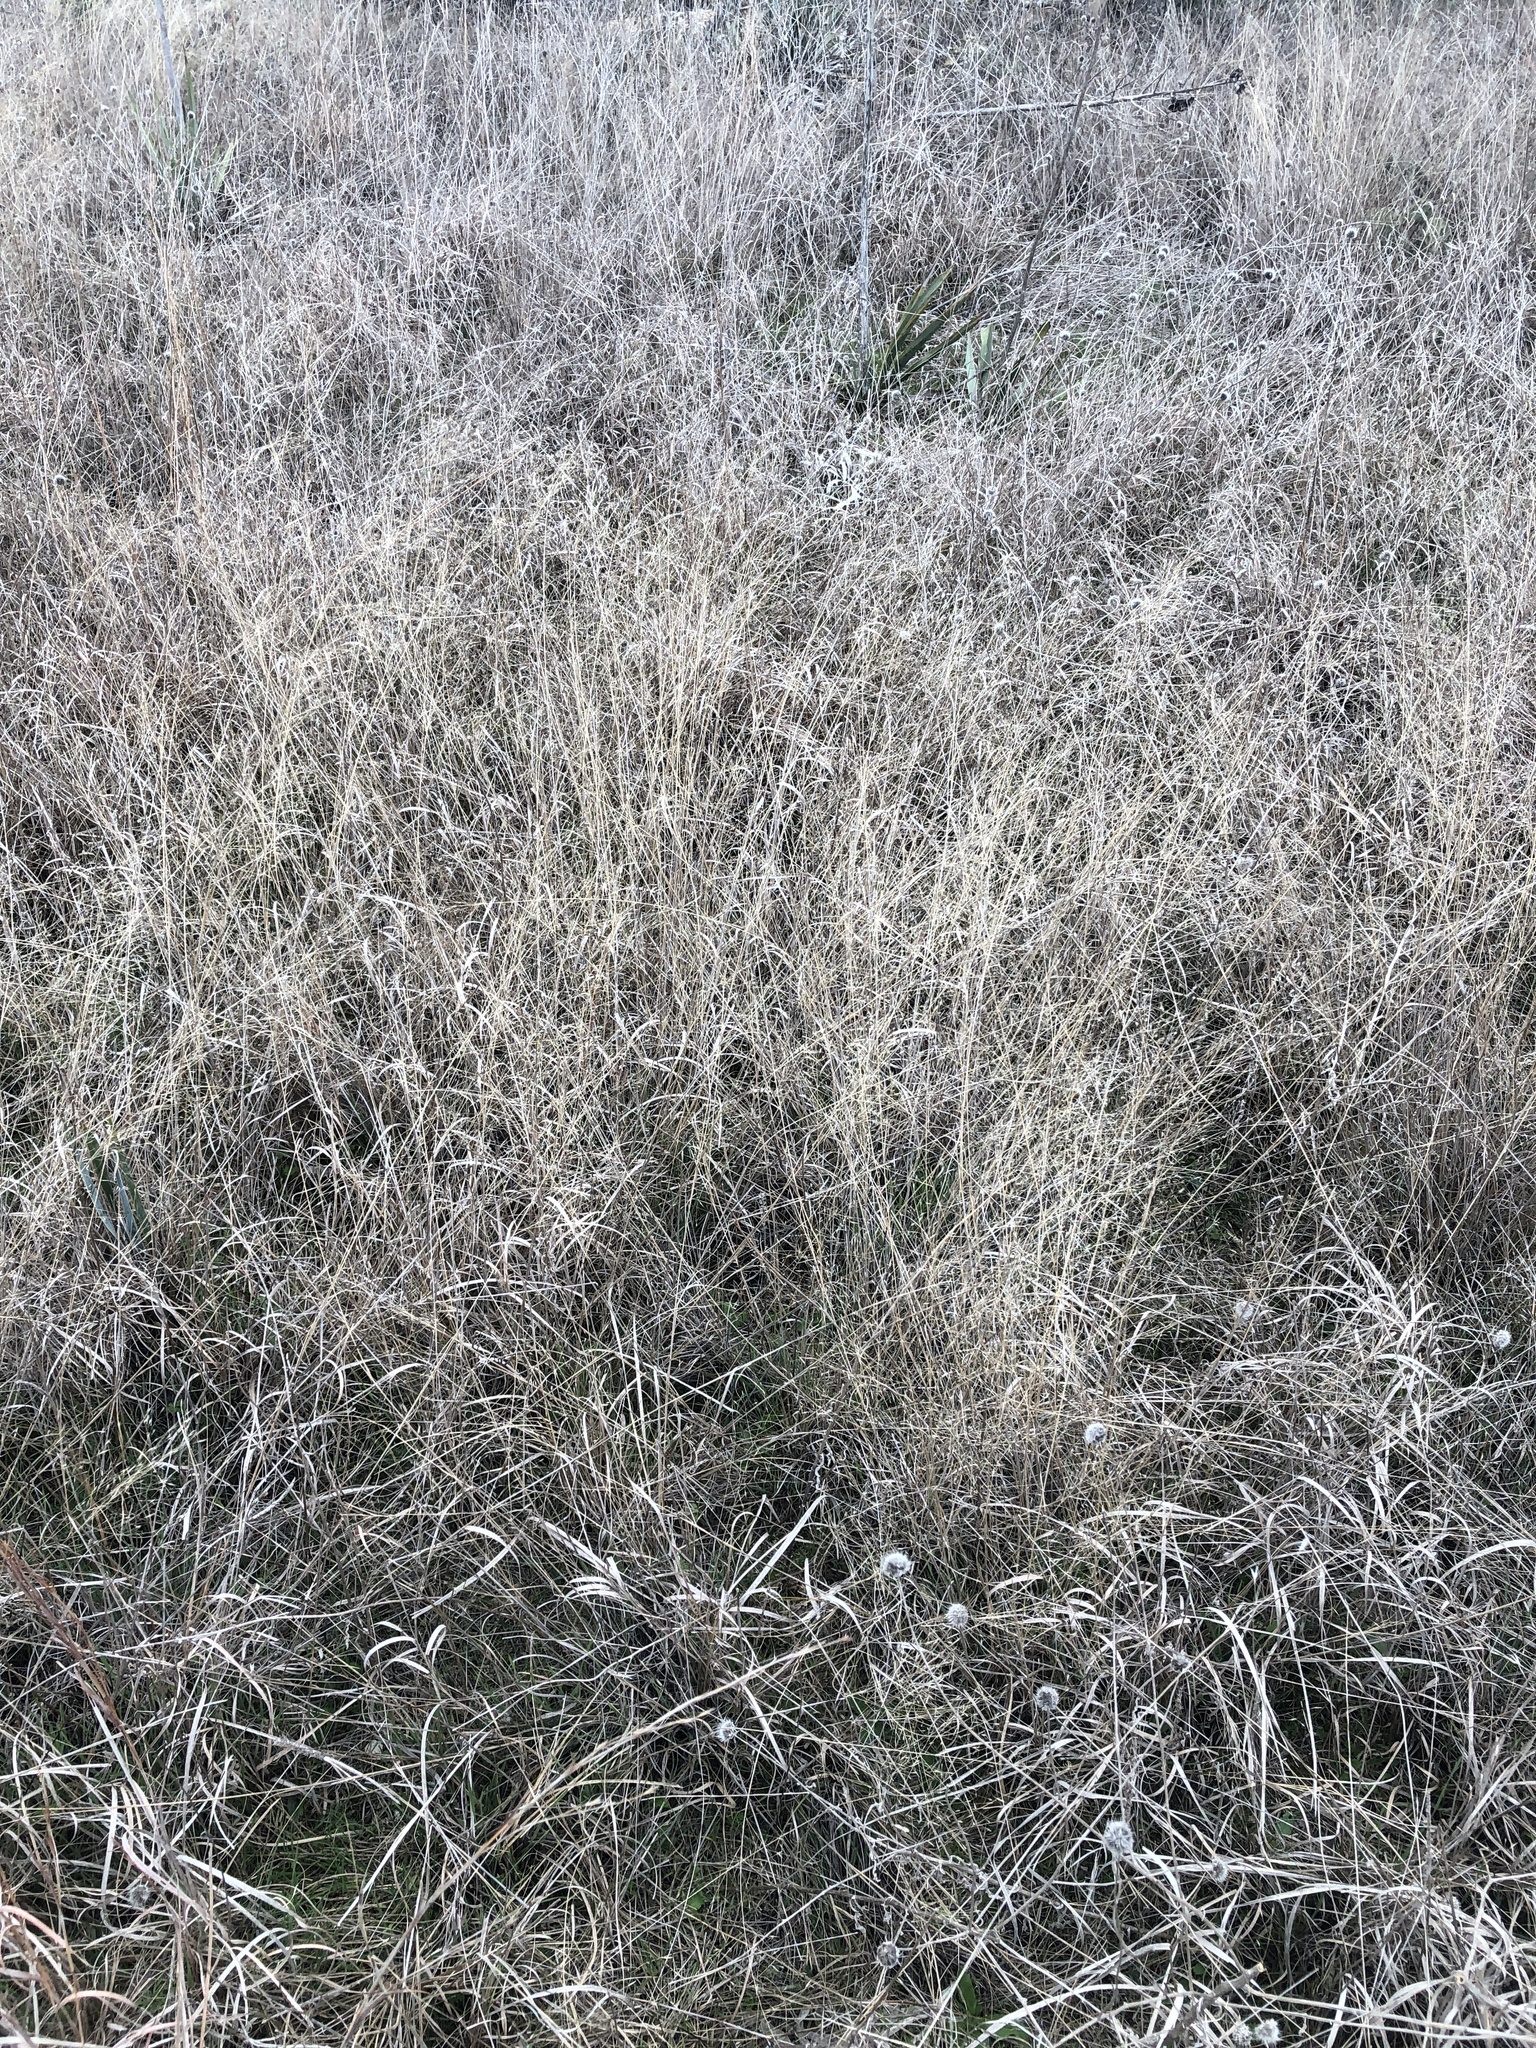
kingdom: Plantae
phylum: Tracheophyta
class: Liliopsida
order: Poales
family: Poaceae
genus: Muhlenbergia
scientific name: Muhlenbergia reverchonii
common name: Seep muhly
